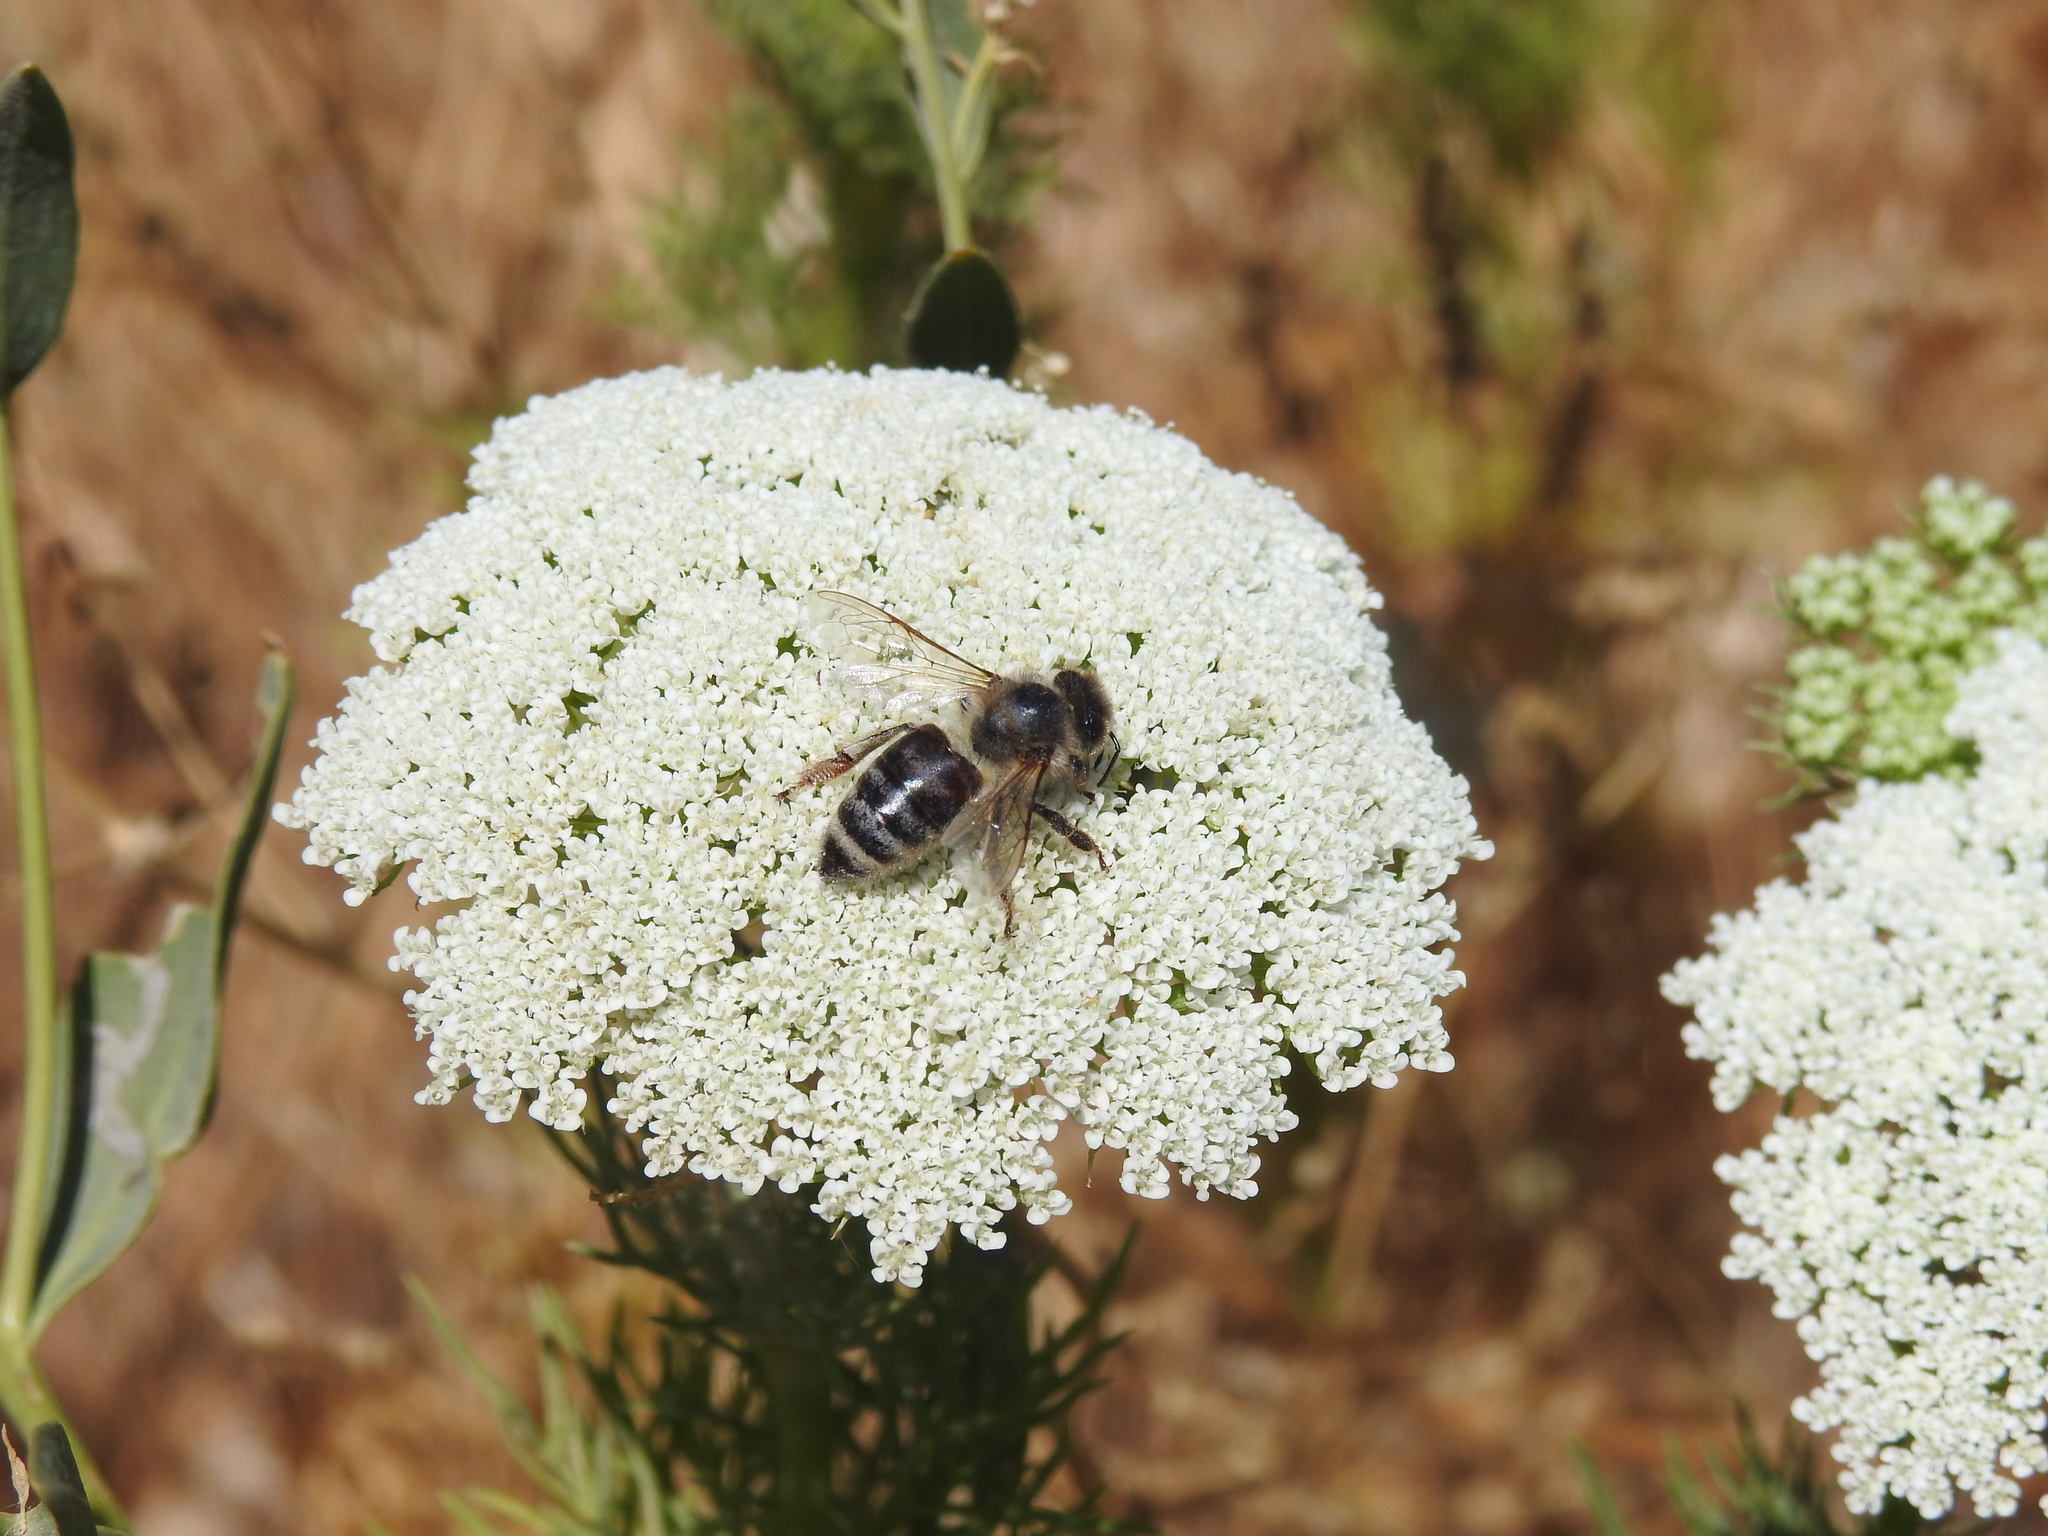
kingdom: Animalia
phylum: Arthropoda
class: Insecta
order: Hymenoptera
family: Apidae
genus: Apis
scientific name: Apis mellifera
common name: Honey bee
